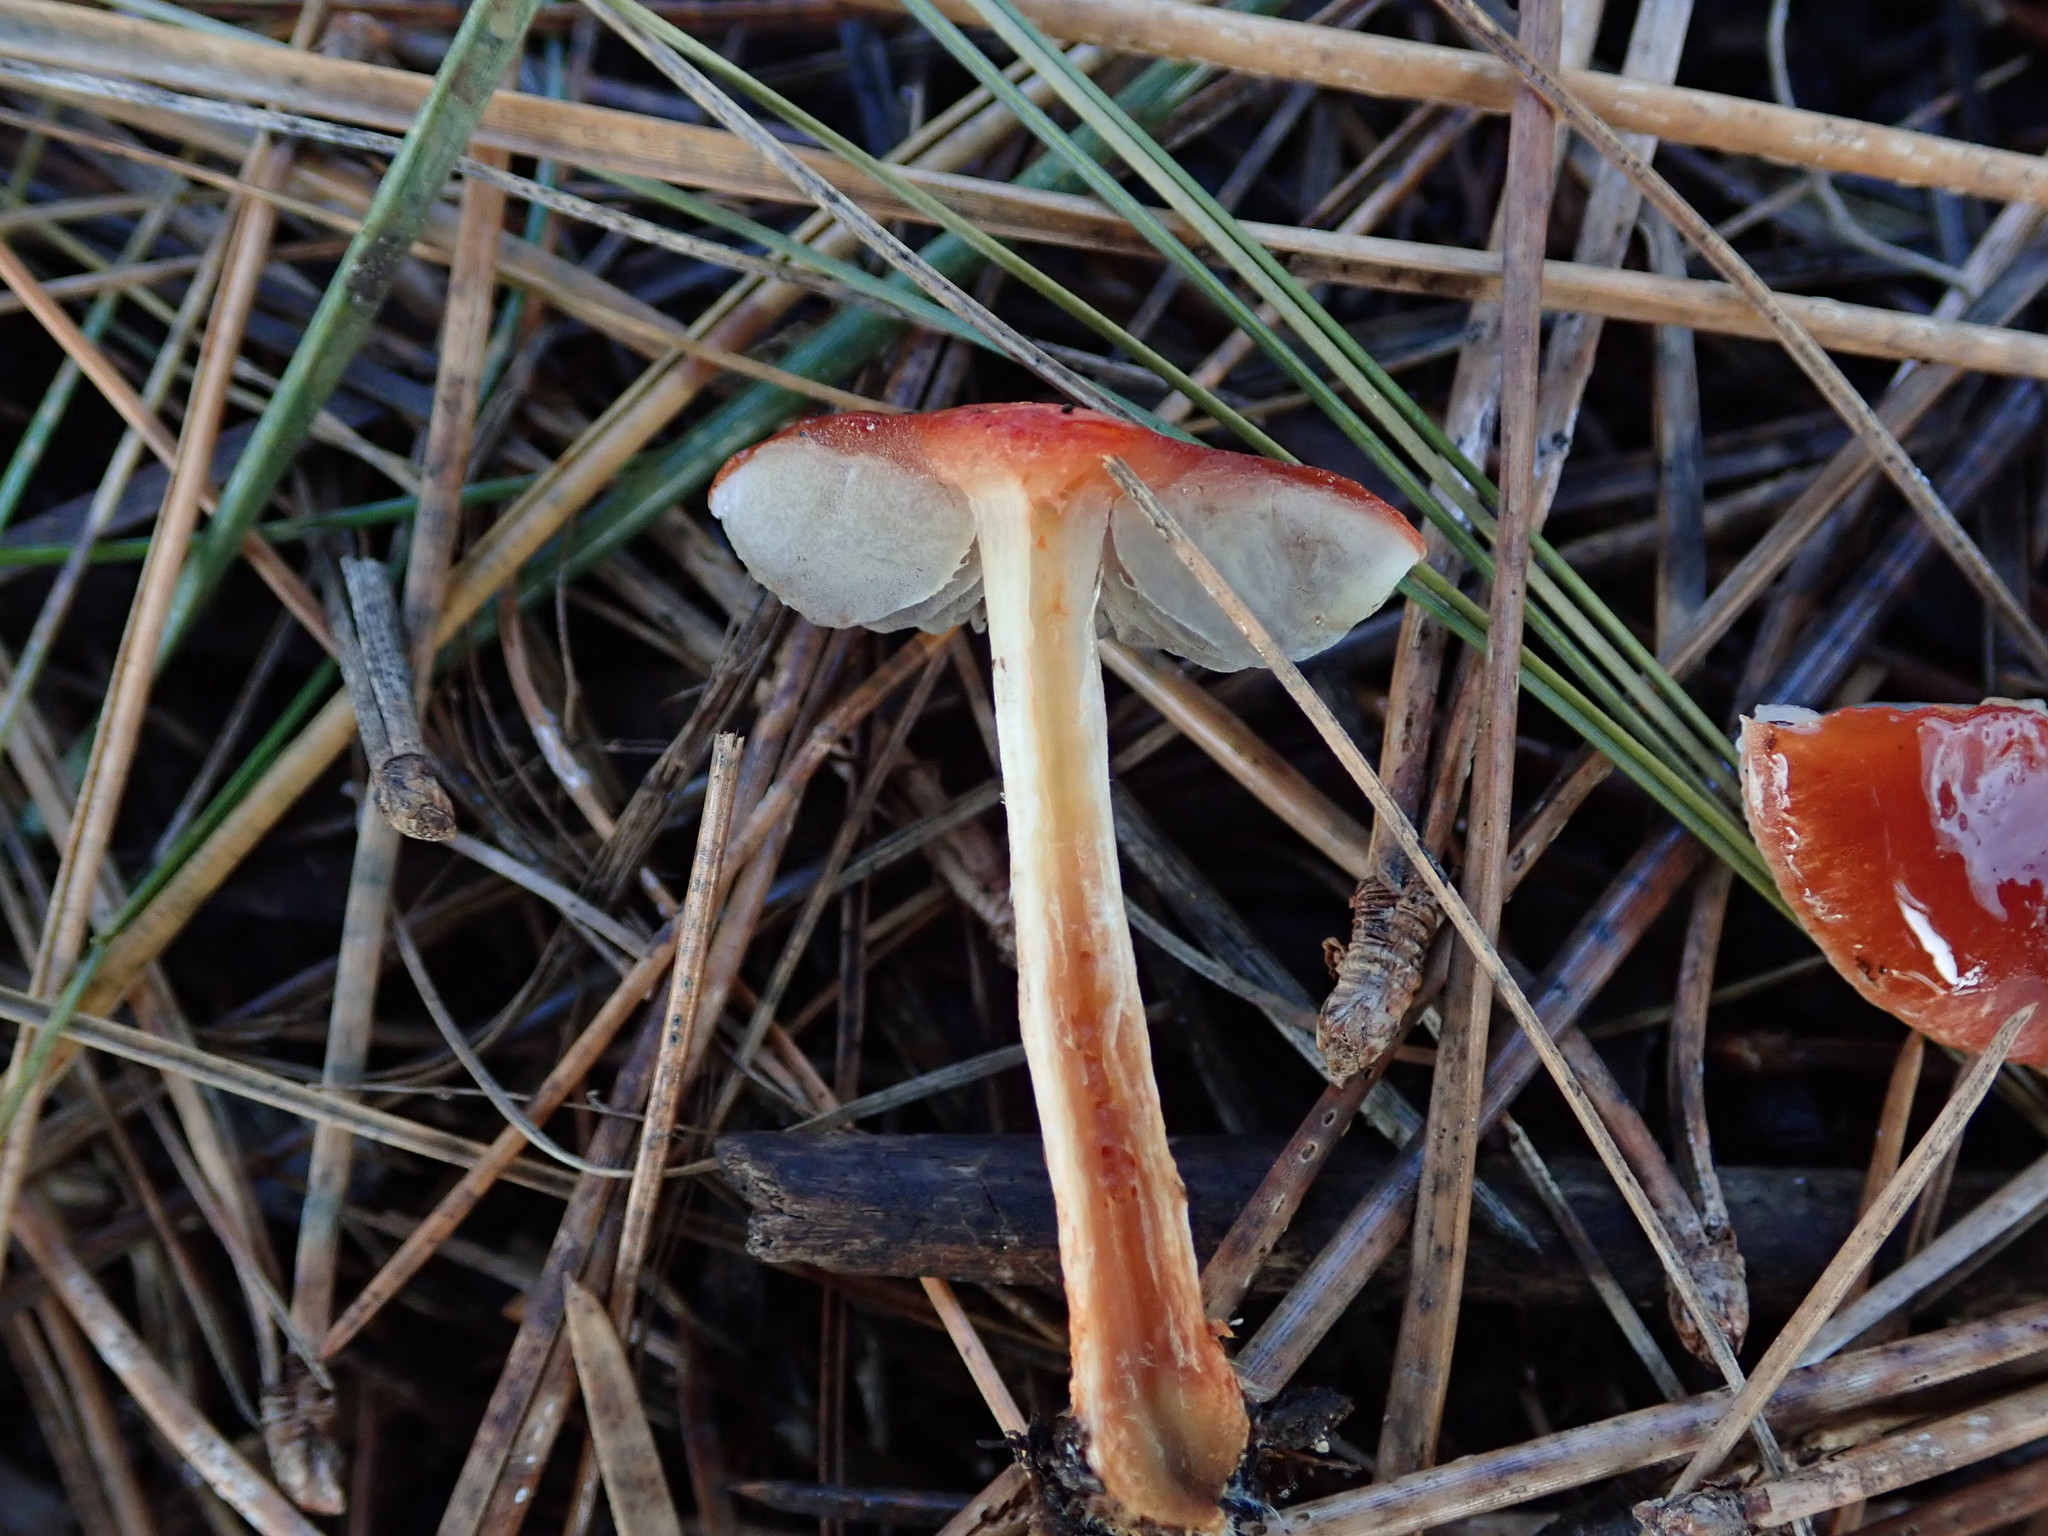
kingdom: Fungi
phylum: Basidiomycota
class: Agaricomycetes
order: Agaricales
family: Strophariaceae
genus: Leratiomyces
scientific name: Leratiomyces ceres
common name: Redlead roundhead
